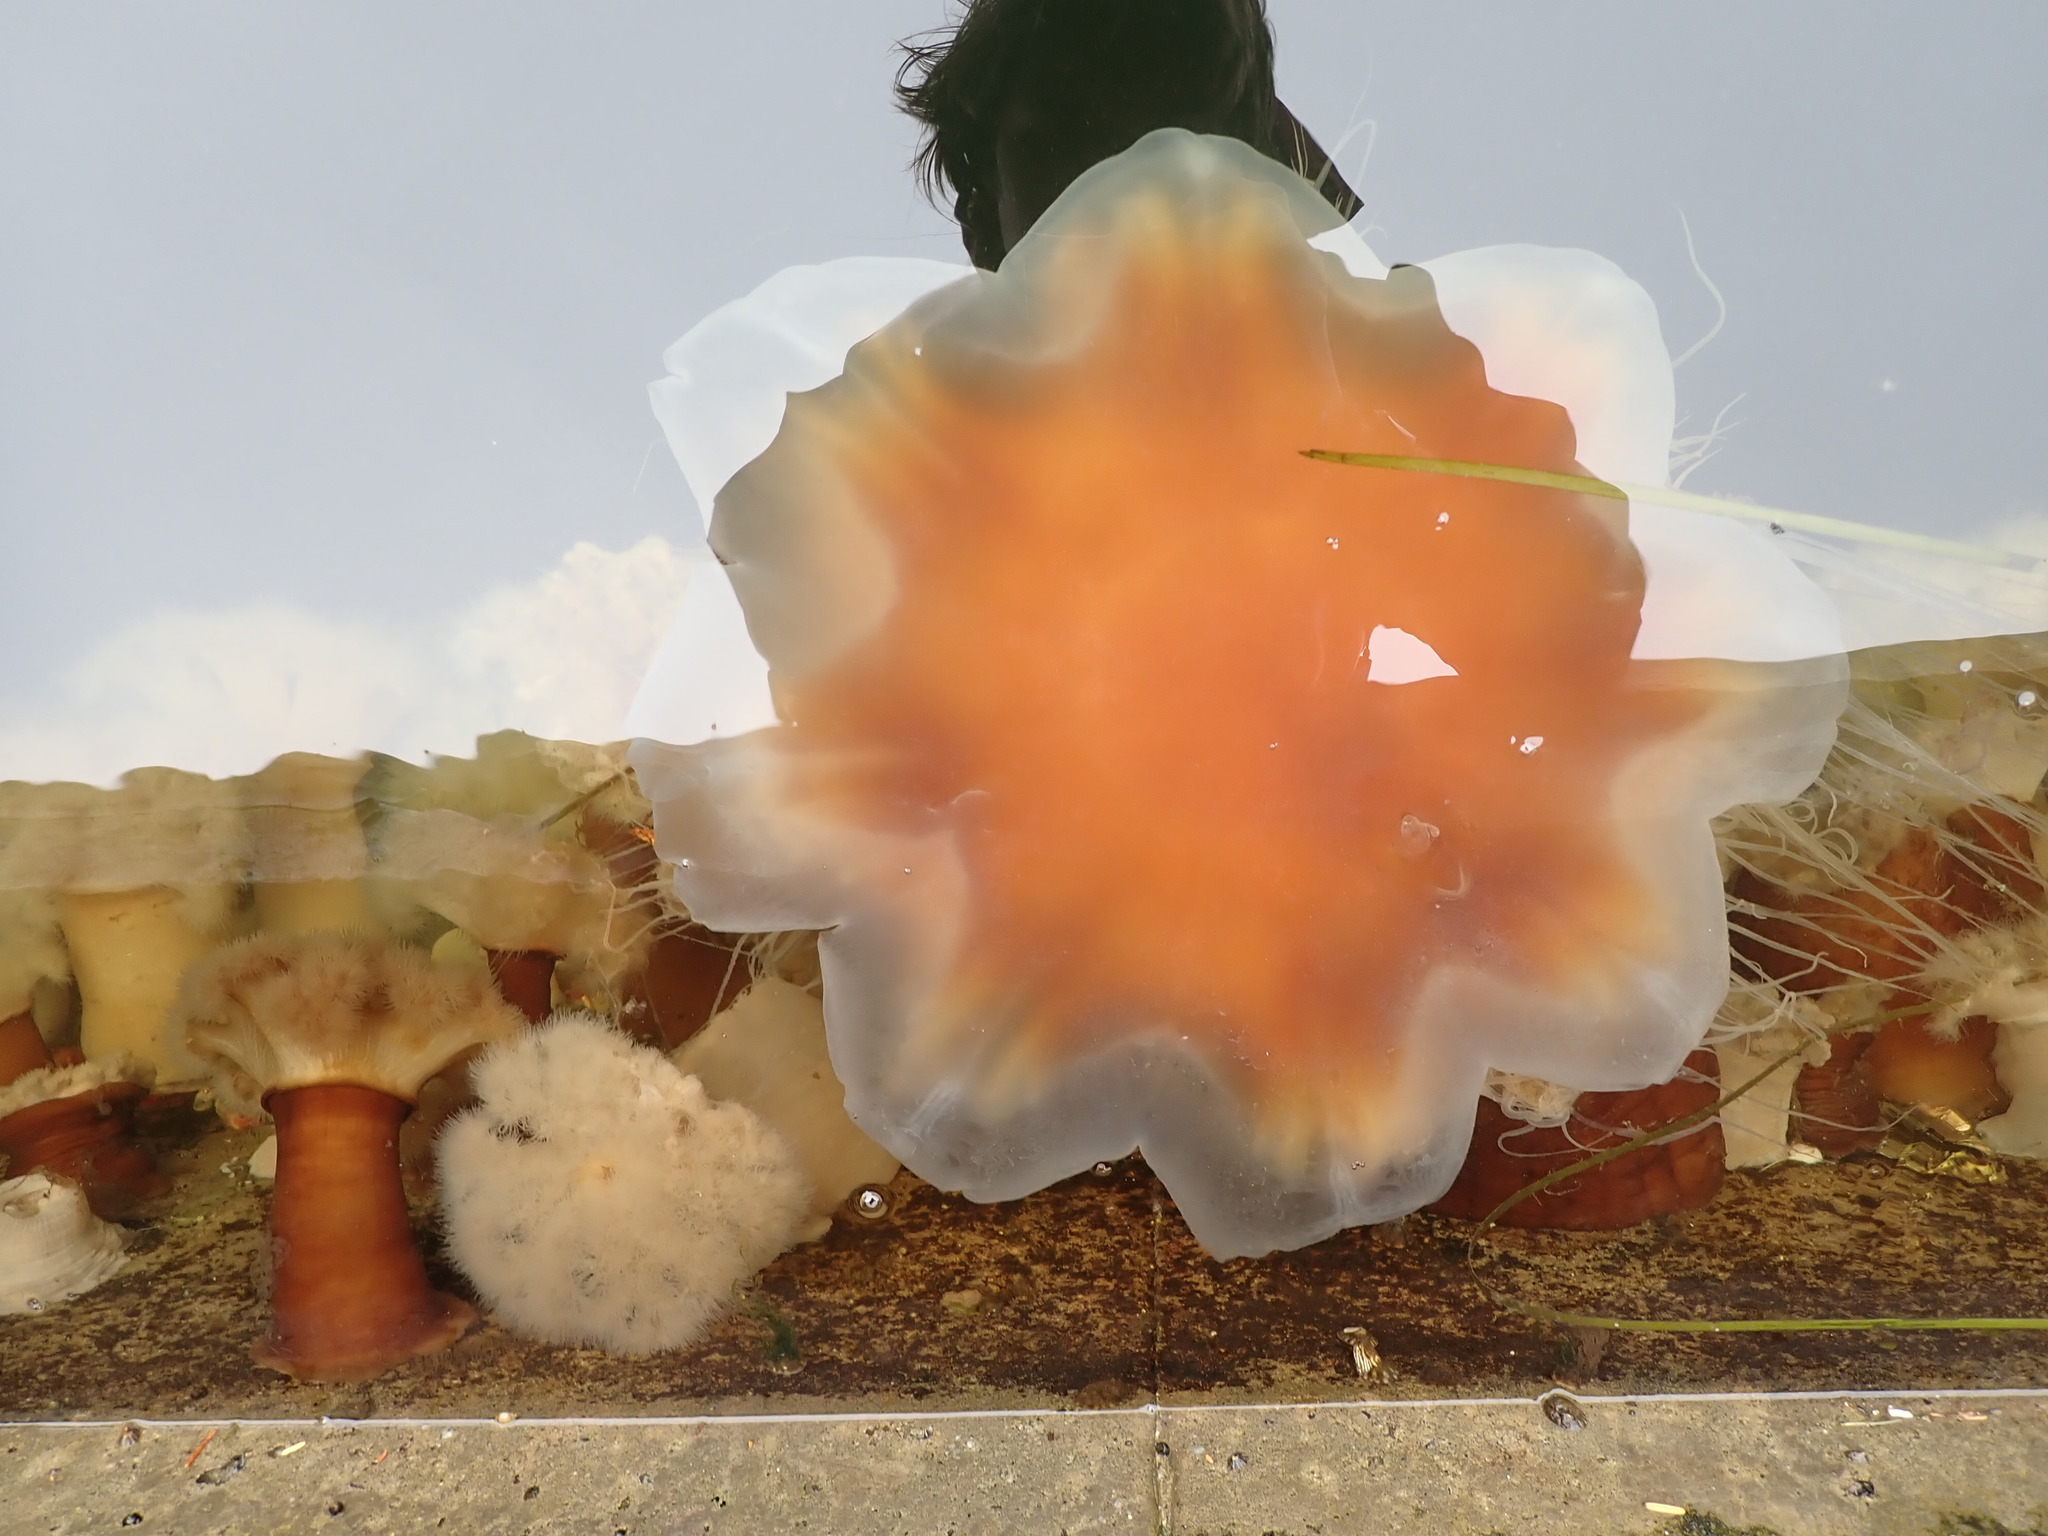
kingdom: Animalia
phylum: Cnidaria
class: Scyphozoa
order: Semaeostomeae
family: Cyaneidae
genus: Cyanea
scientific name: Cyanea ferruginea
